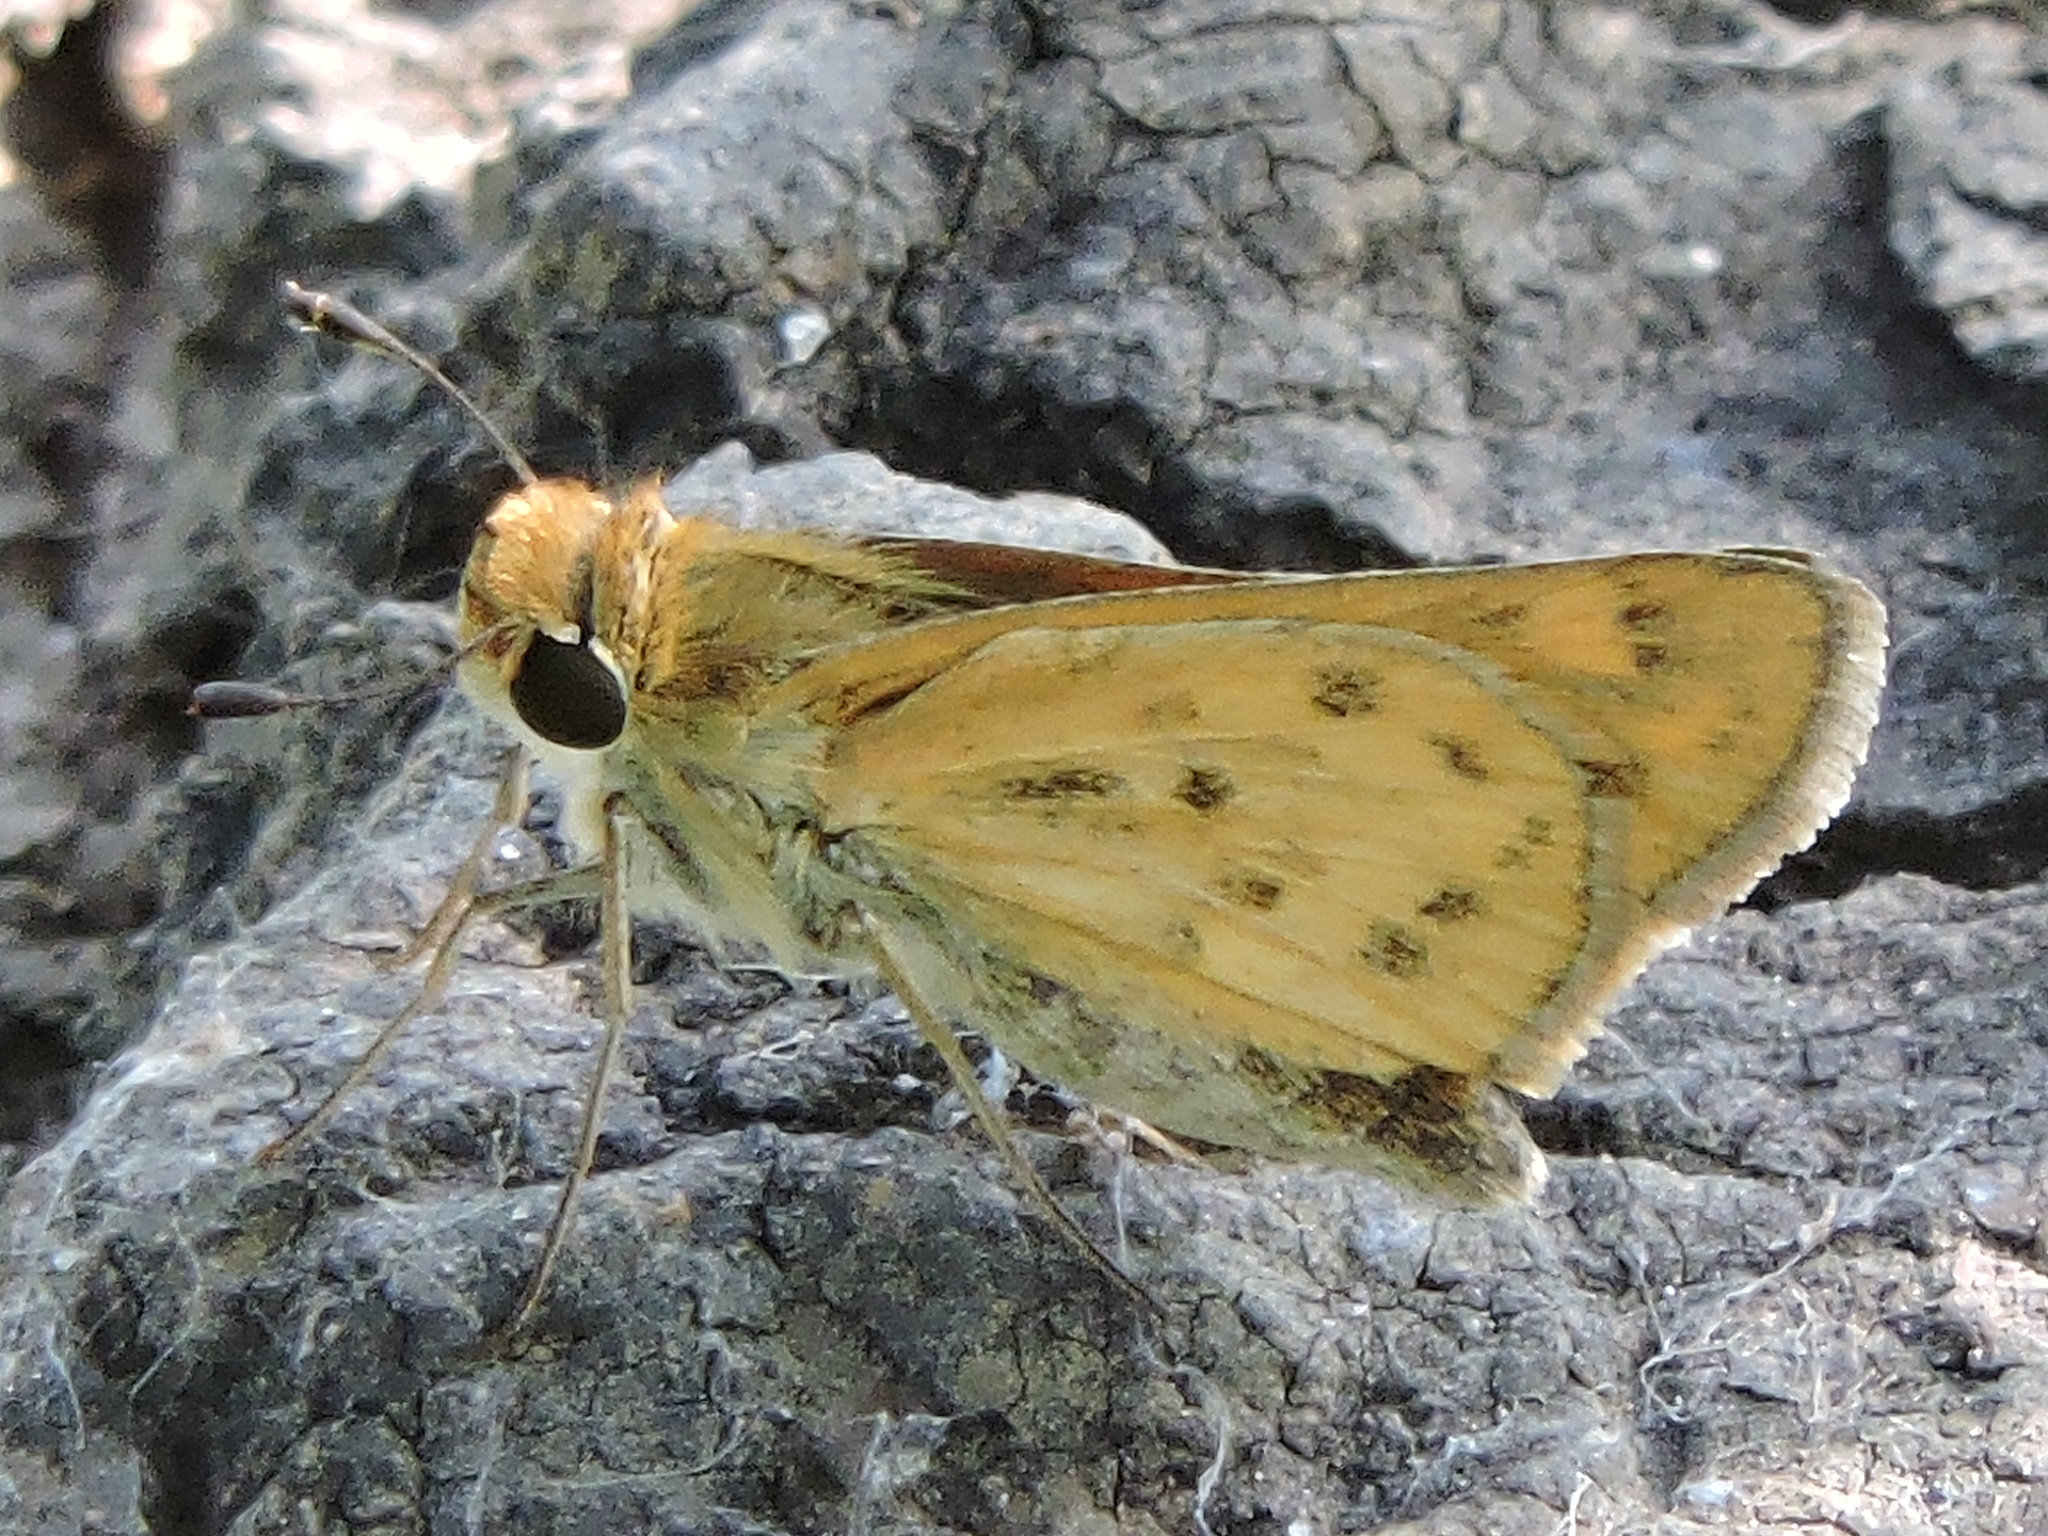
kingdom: Animalia
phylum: Arthropoda
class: Insecta
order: Lepidoptera
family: Hesperiidae
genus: Hylephila
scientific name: Hylephila phyleus
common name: Fiery skipper
